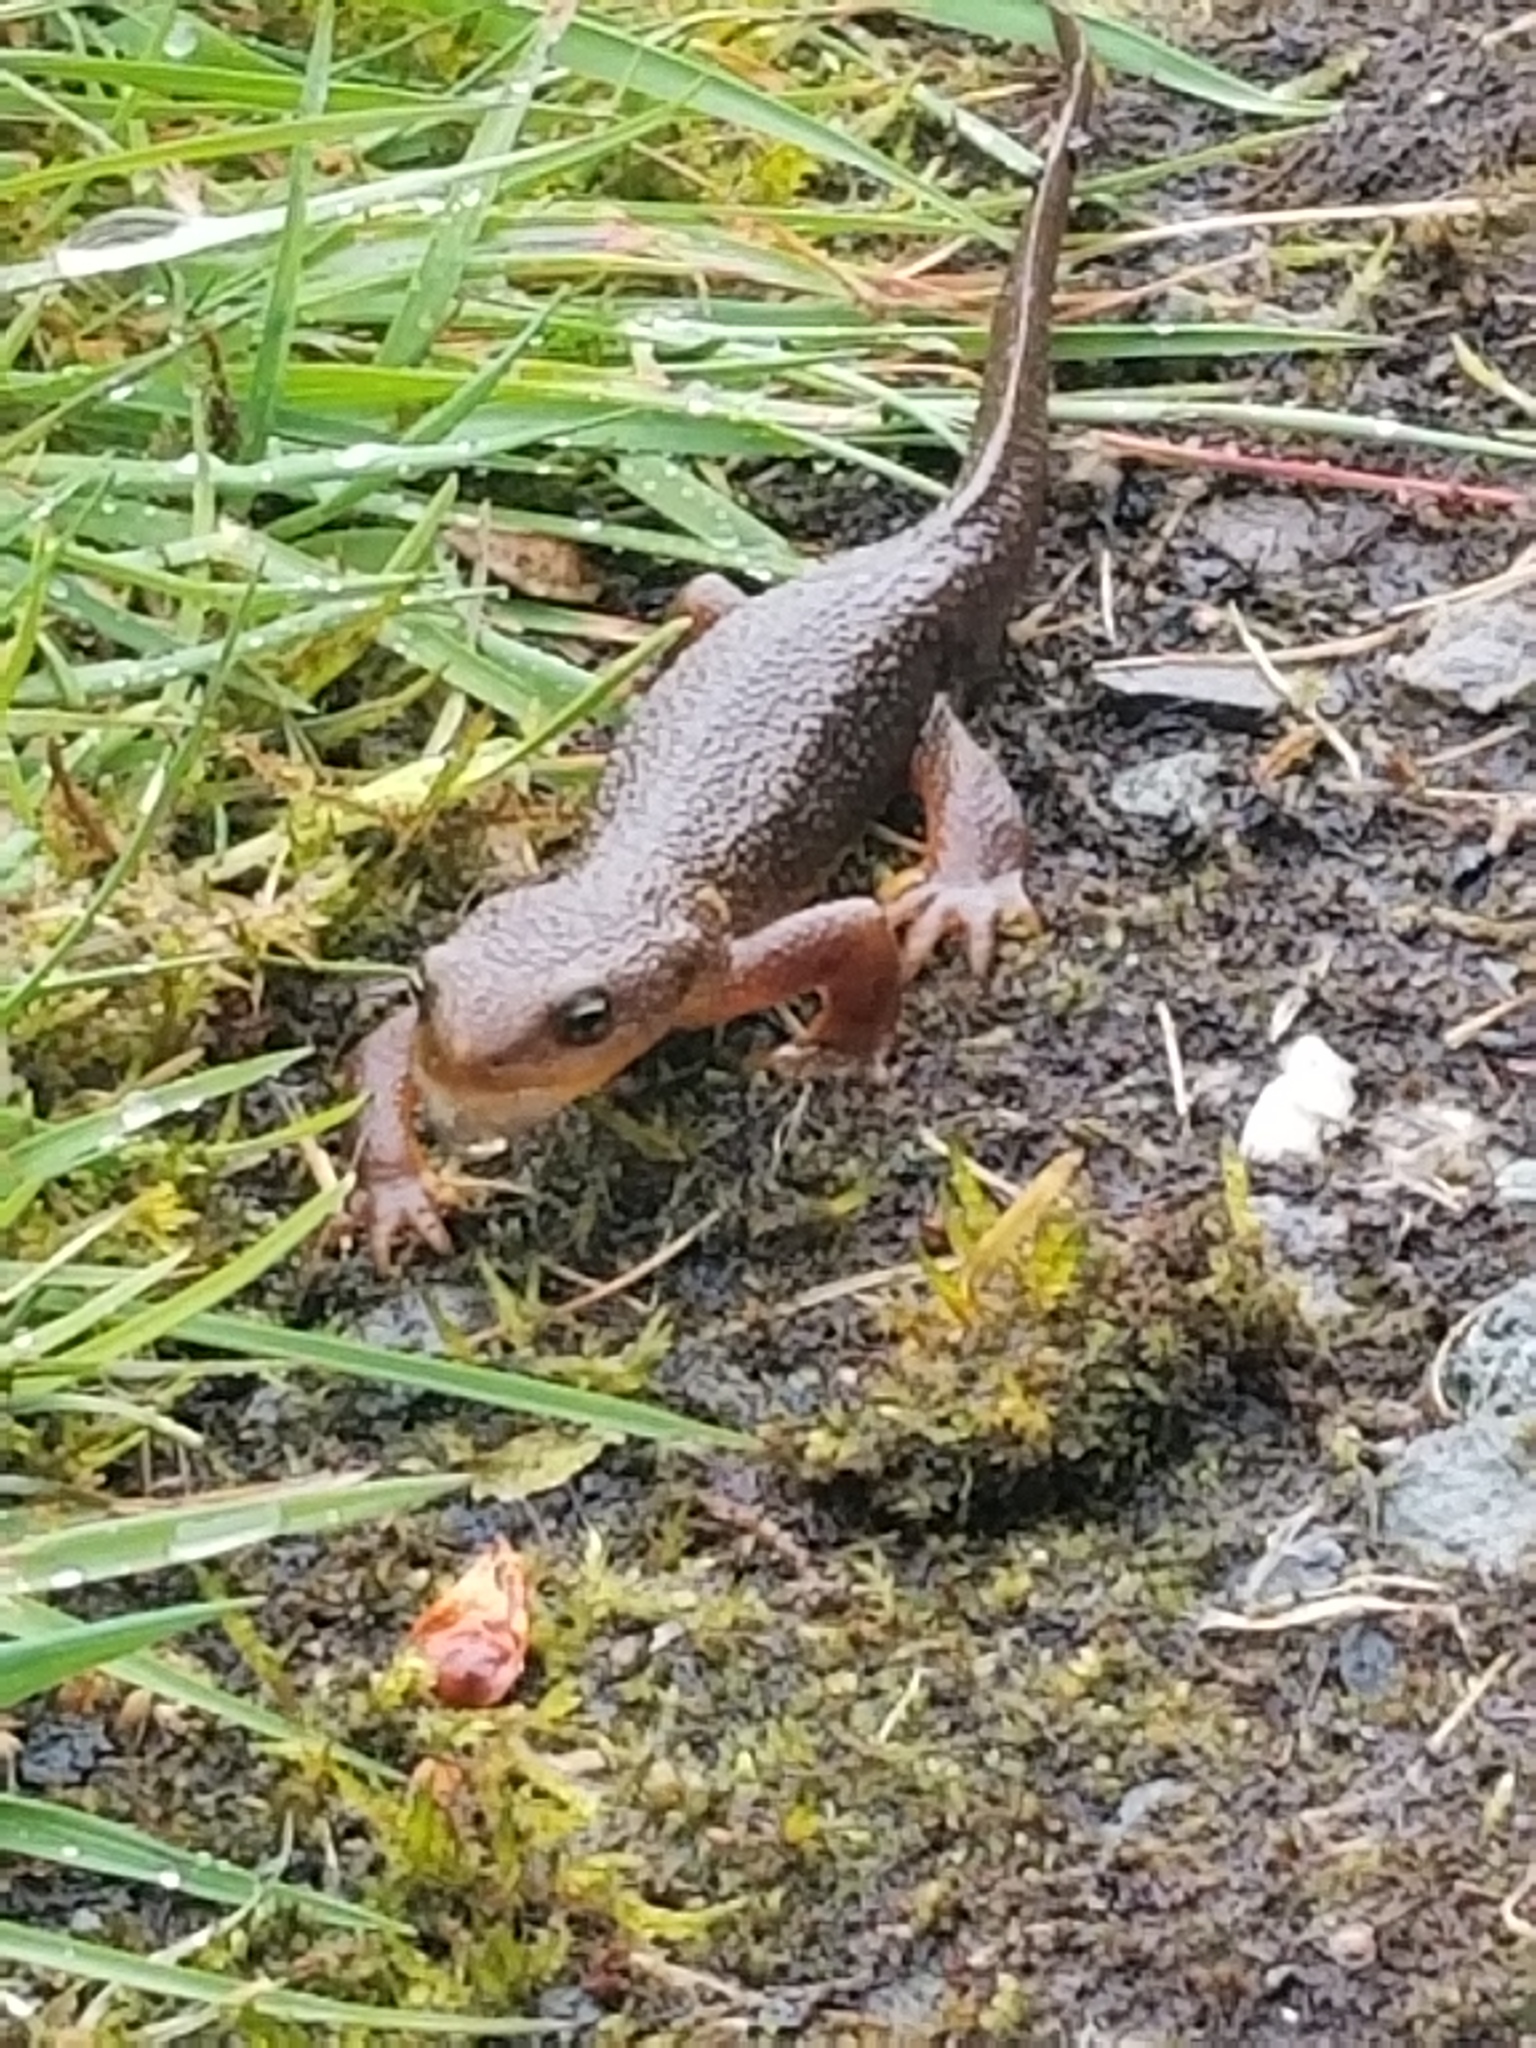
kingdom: Animalia
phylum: Chordata
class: Amphibia
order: Caudata
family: Salamandridae
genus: Taricha
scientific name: Taricha granulosa
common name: Roughskin newt
